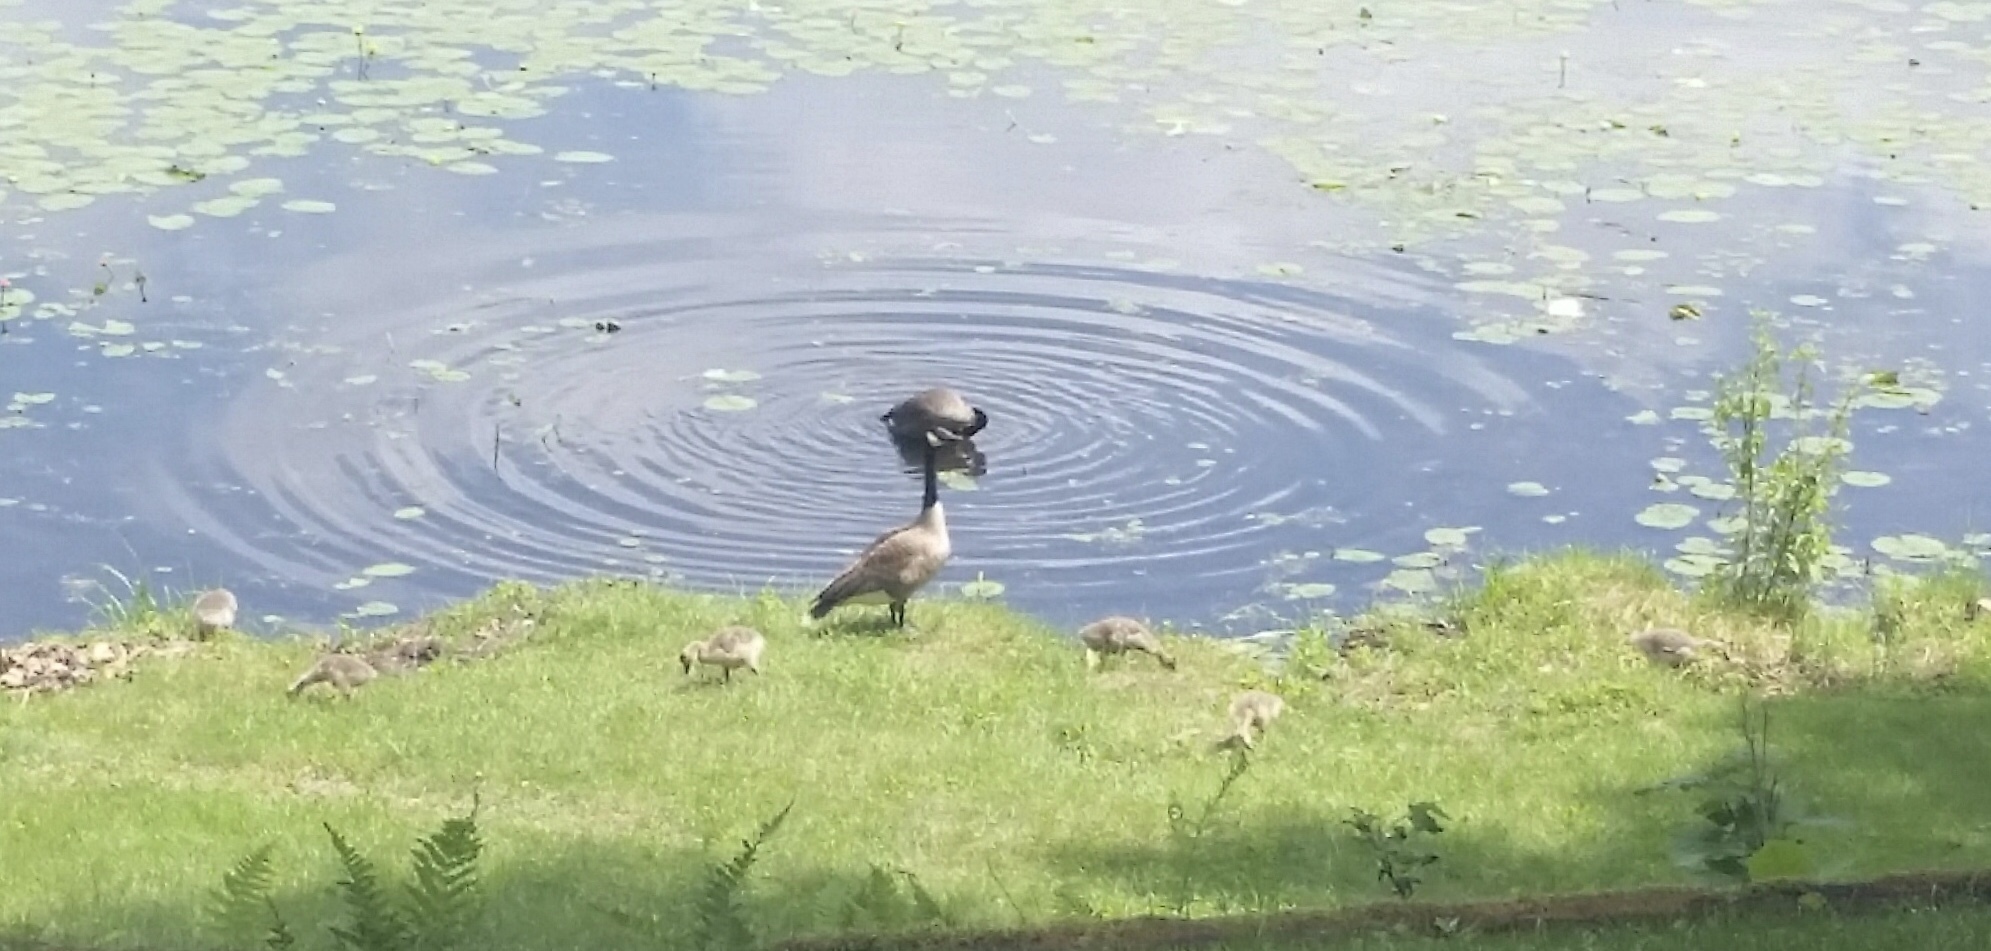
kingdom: Animalia
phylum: Chordata
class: Aves
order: Anseriformes
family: Anatidae
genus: Branta
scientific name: Branta canadensis
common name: Canada goose
